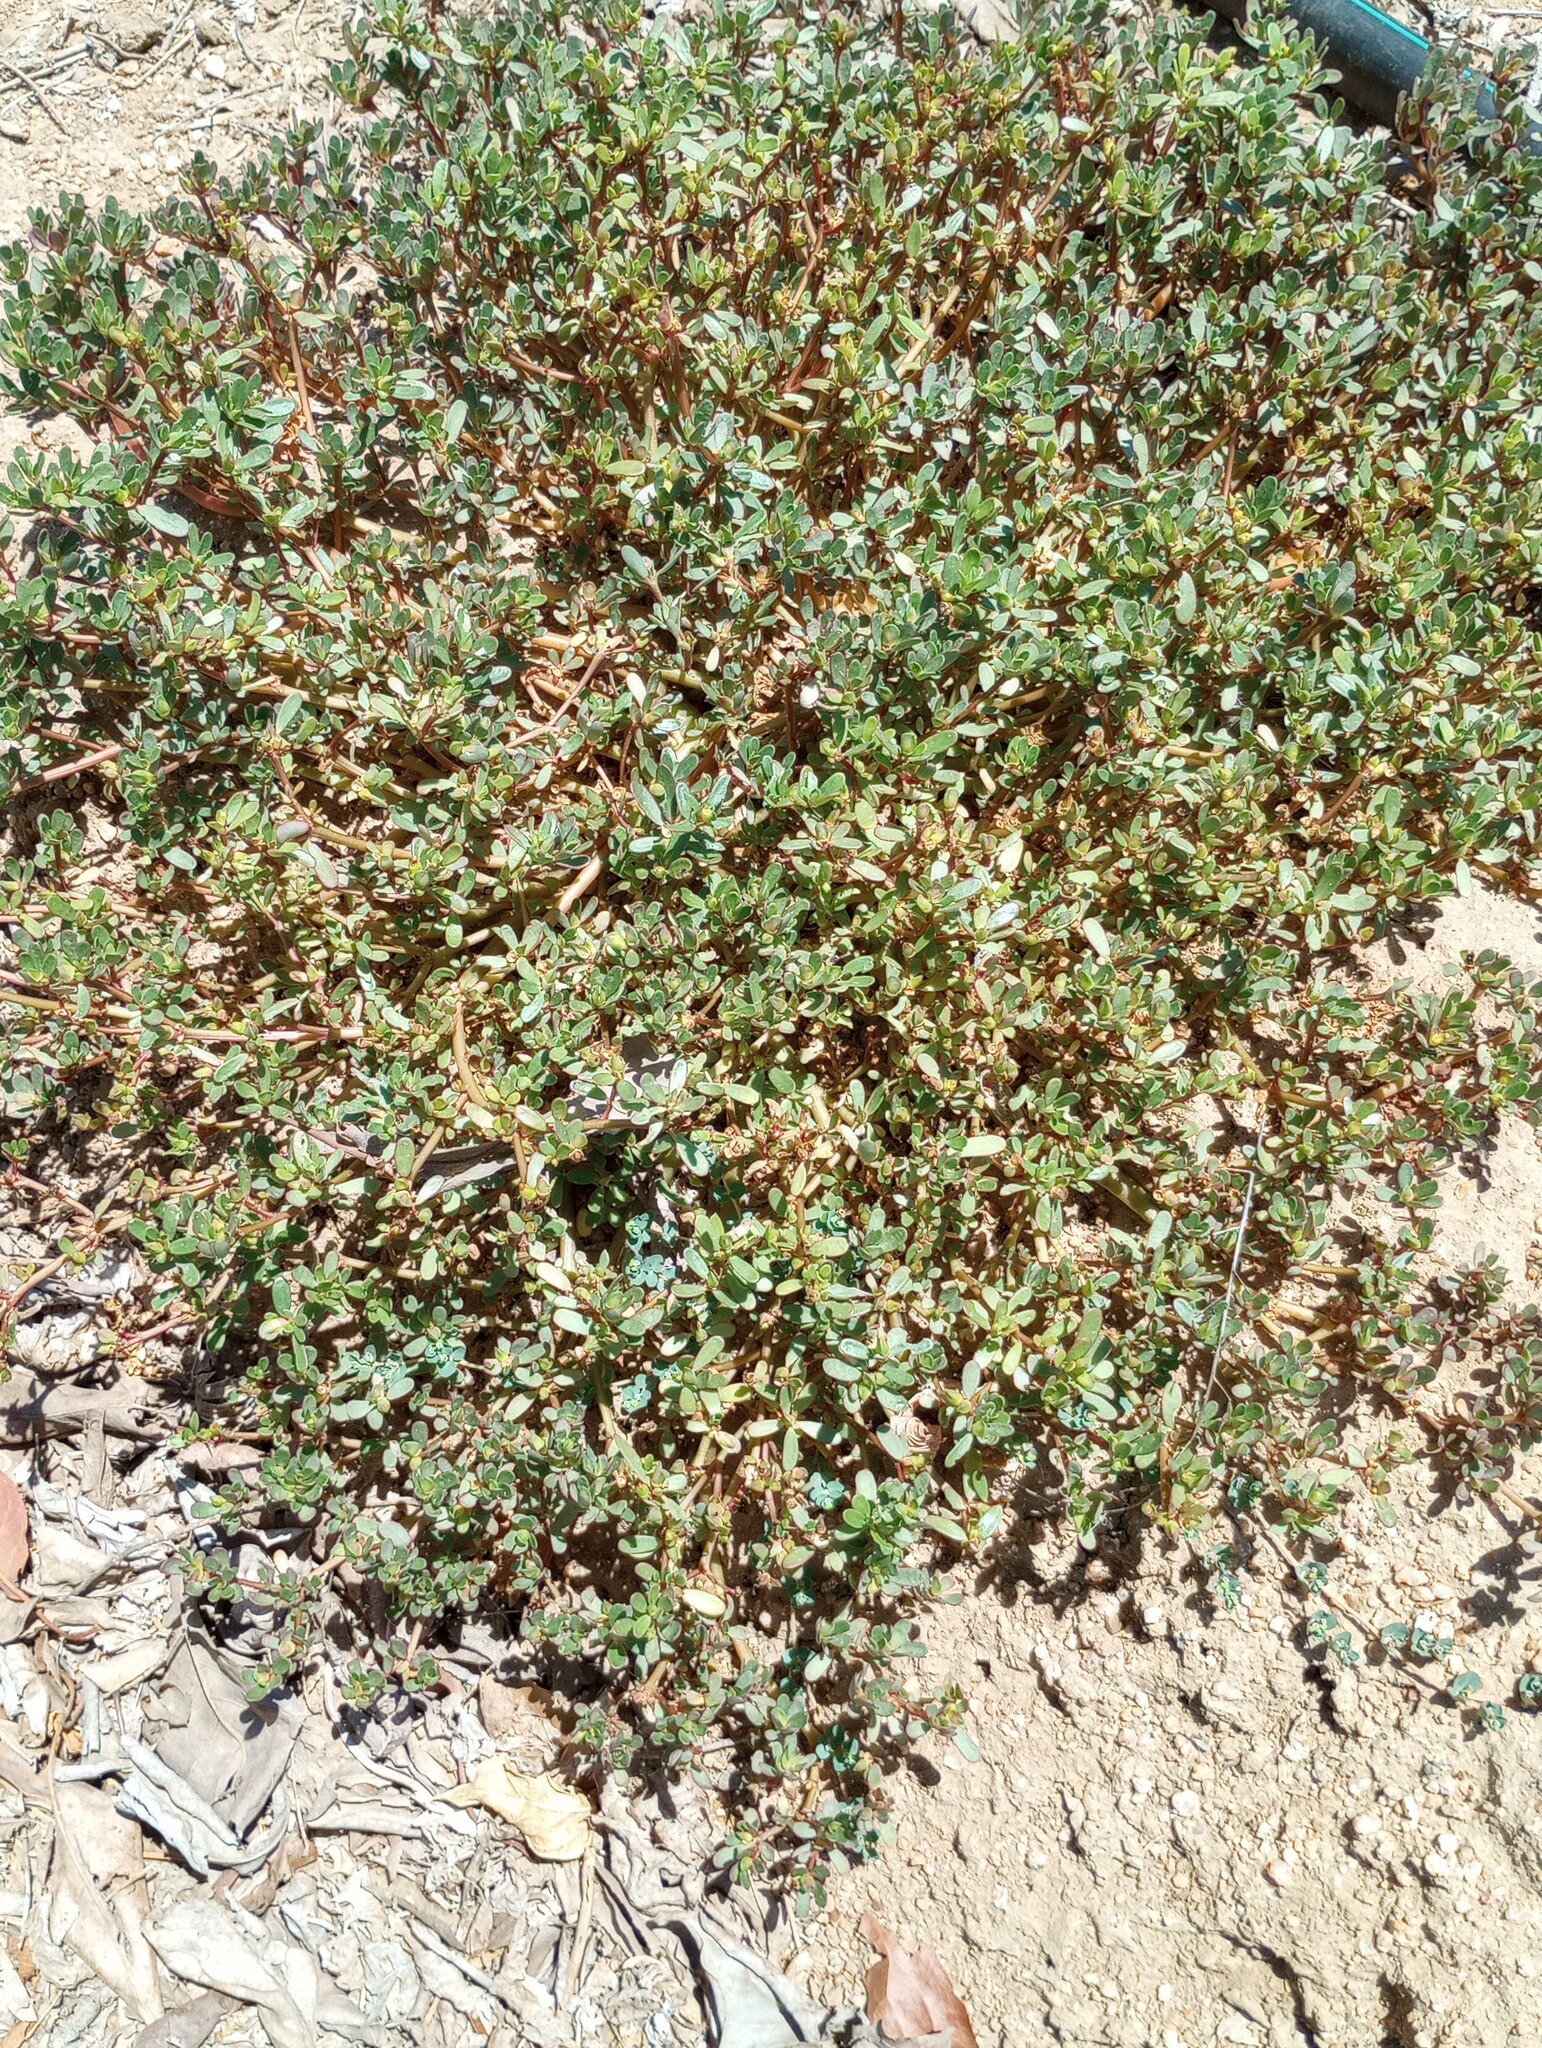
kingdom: Plantae
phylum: Tracheophyta
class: Magnoliopsida
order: Caryophyllales
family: Portulacaceae
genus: Portulaca
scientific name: Portulaca oleracea
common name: Common purslane
